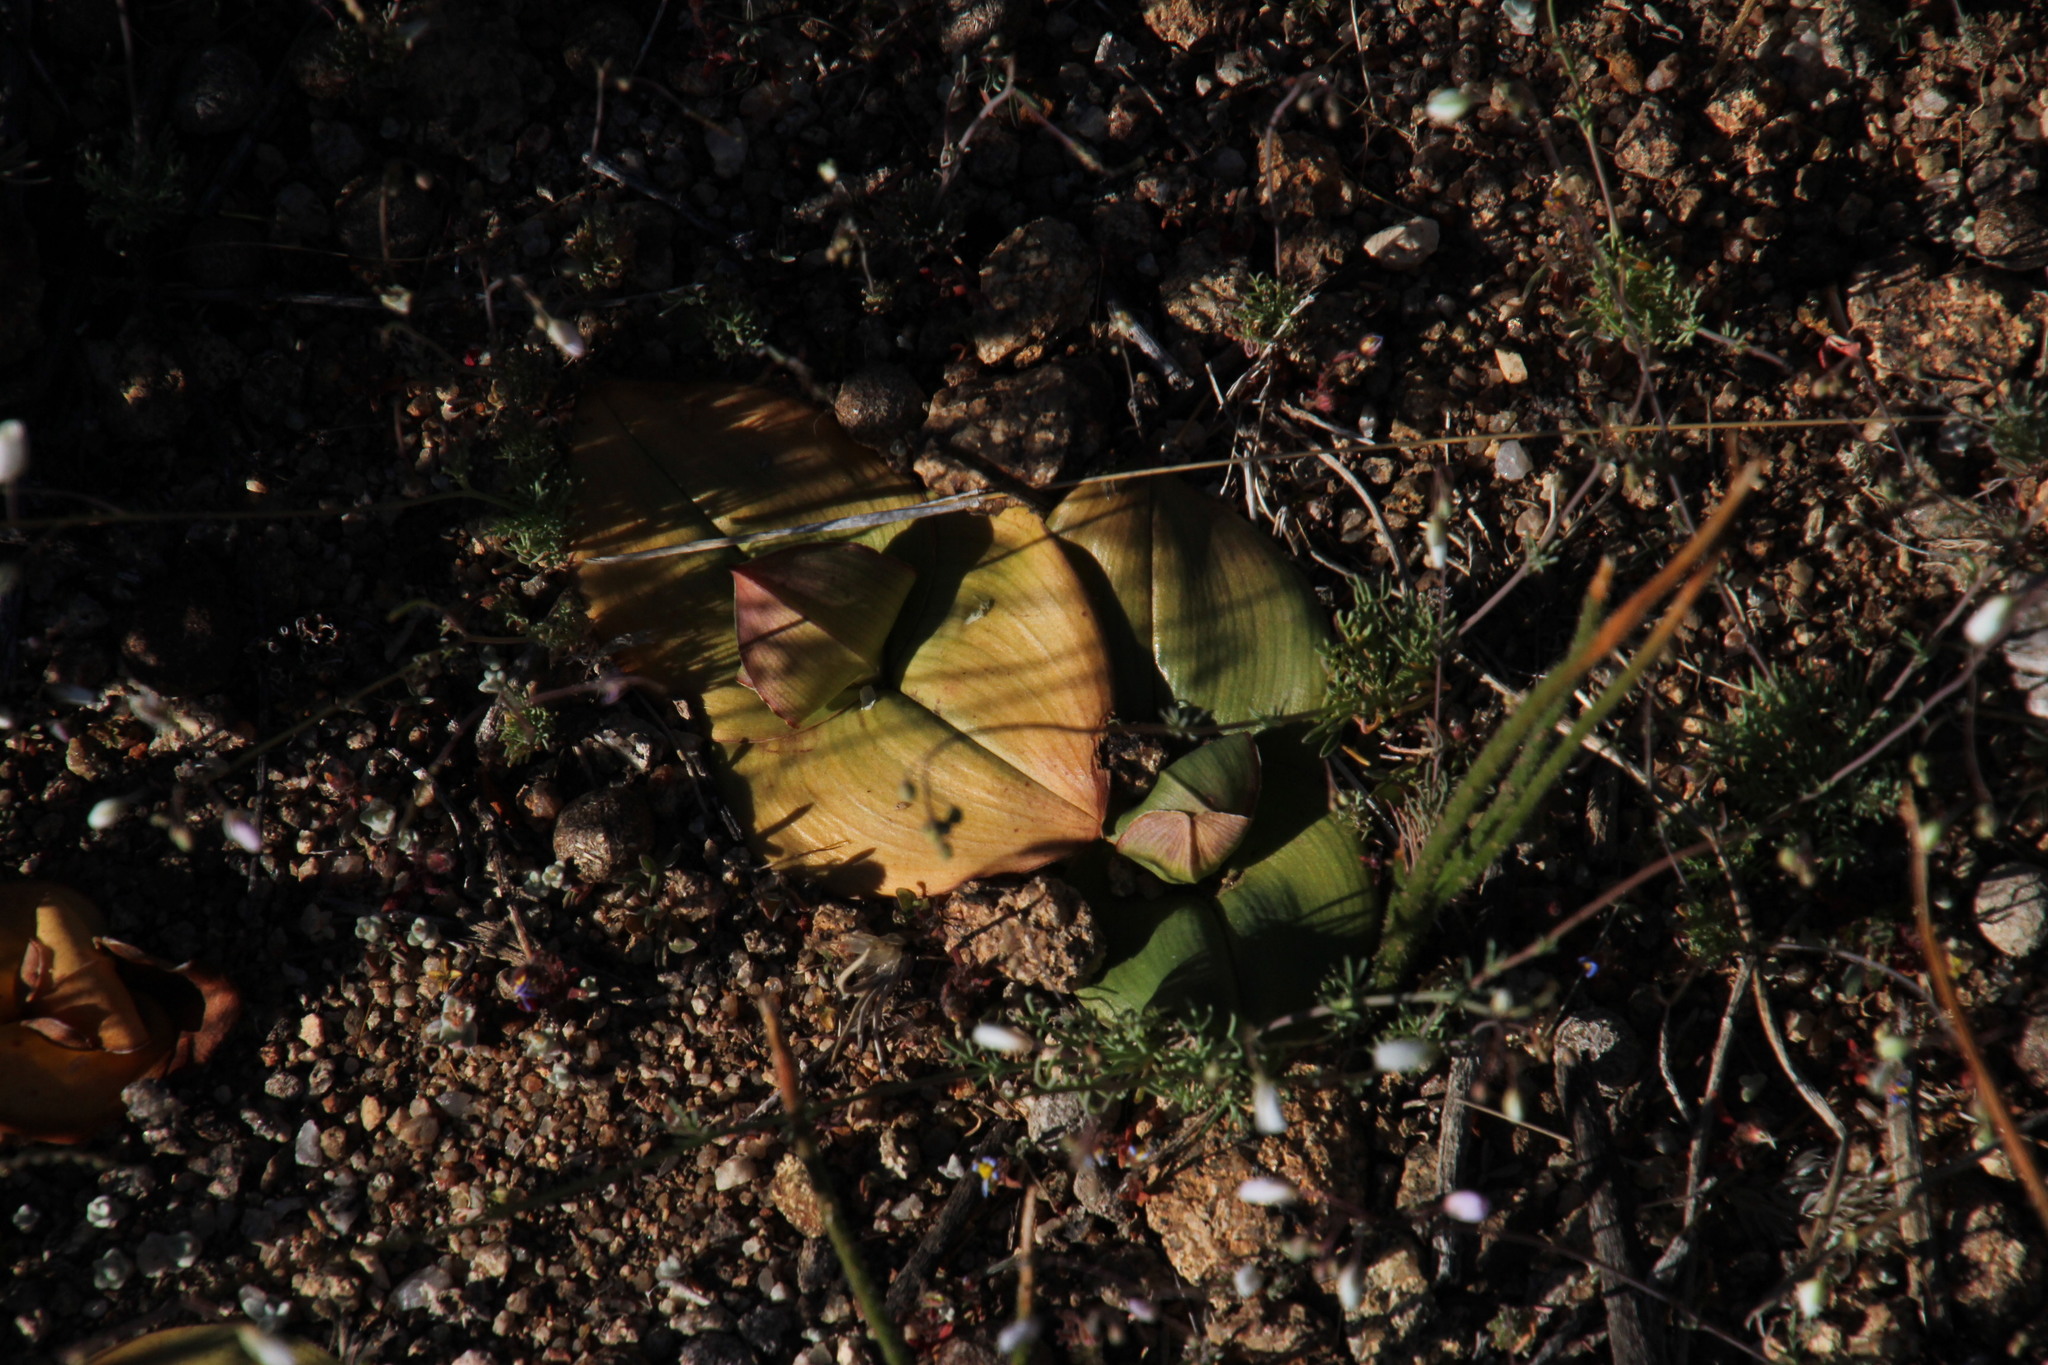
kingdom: Plantae
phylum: Tracheophyta
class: Liliopsida
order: Liliales
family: Colchicaceae
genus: Colchicum
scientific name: Colchicum burchellii
